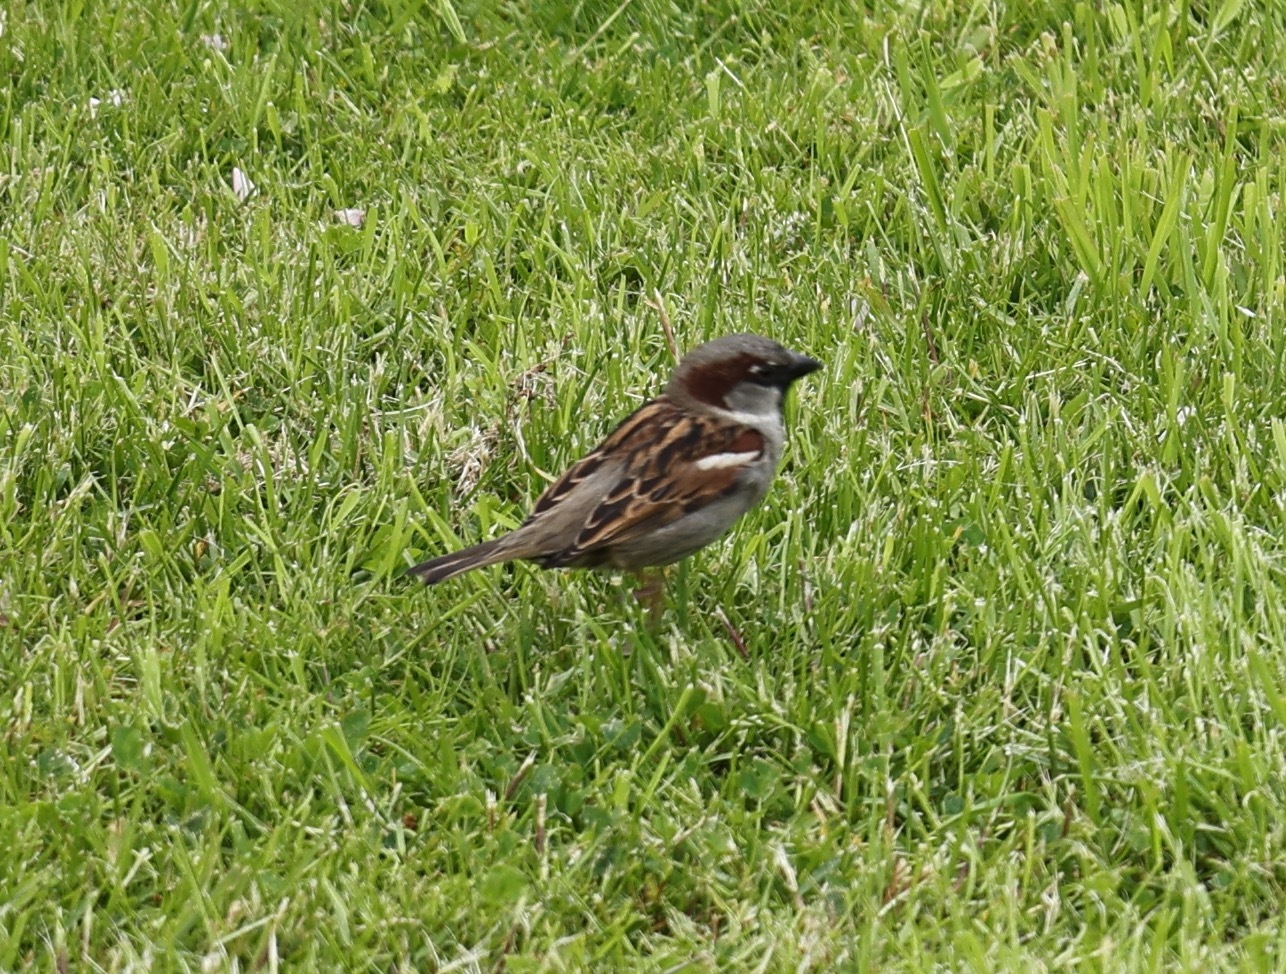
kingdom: Animalia
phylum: Chordata
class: Aves
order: Passeriformes
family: Passeridae
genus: Passer
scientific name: Passer domesticus
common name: House sparrow
